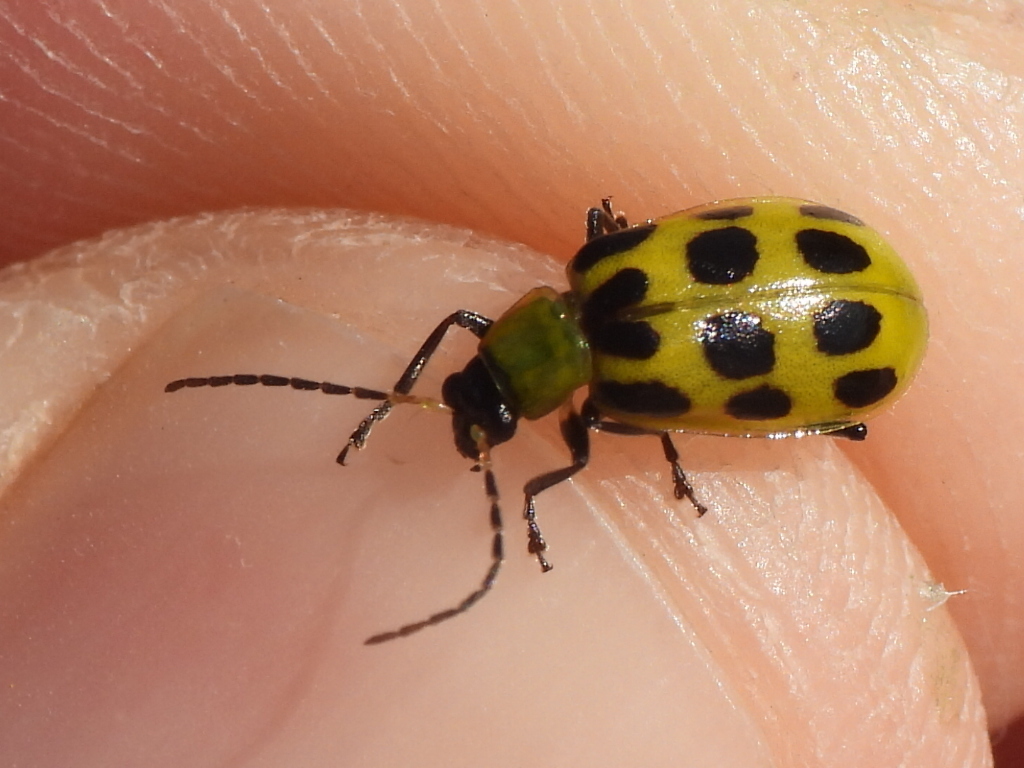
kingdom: Animalia
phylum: Arthropoda
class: Insecta
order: Coleoptera
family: Chrysomelidae
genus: Diabrotica
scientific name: Diabrotica undecimpunctata
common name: Spotted cucumber beetle
